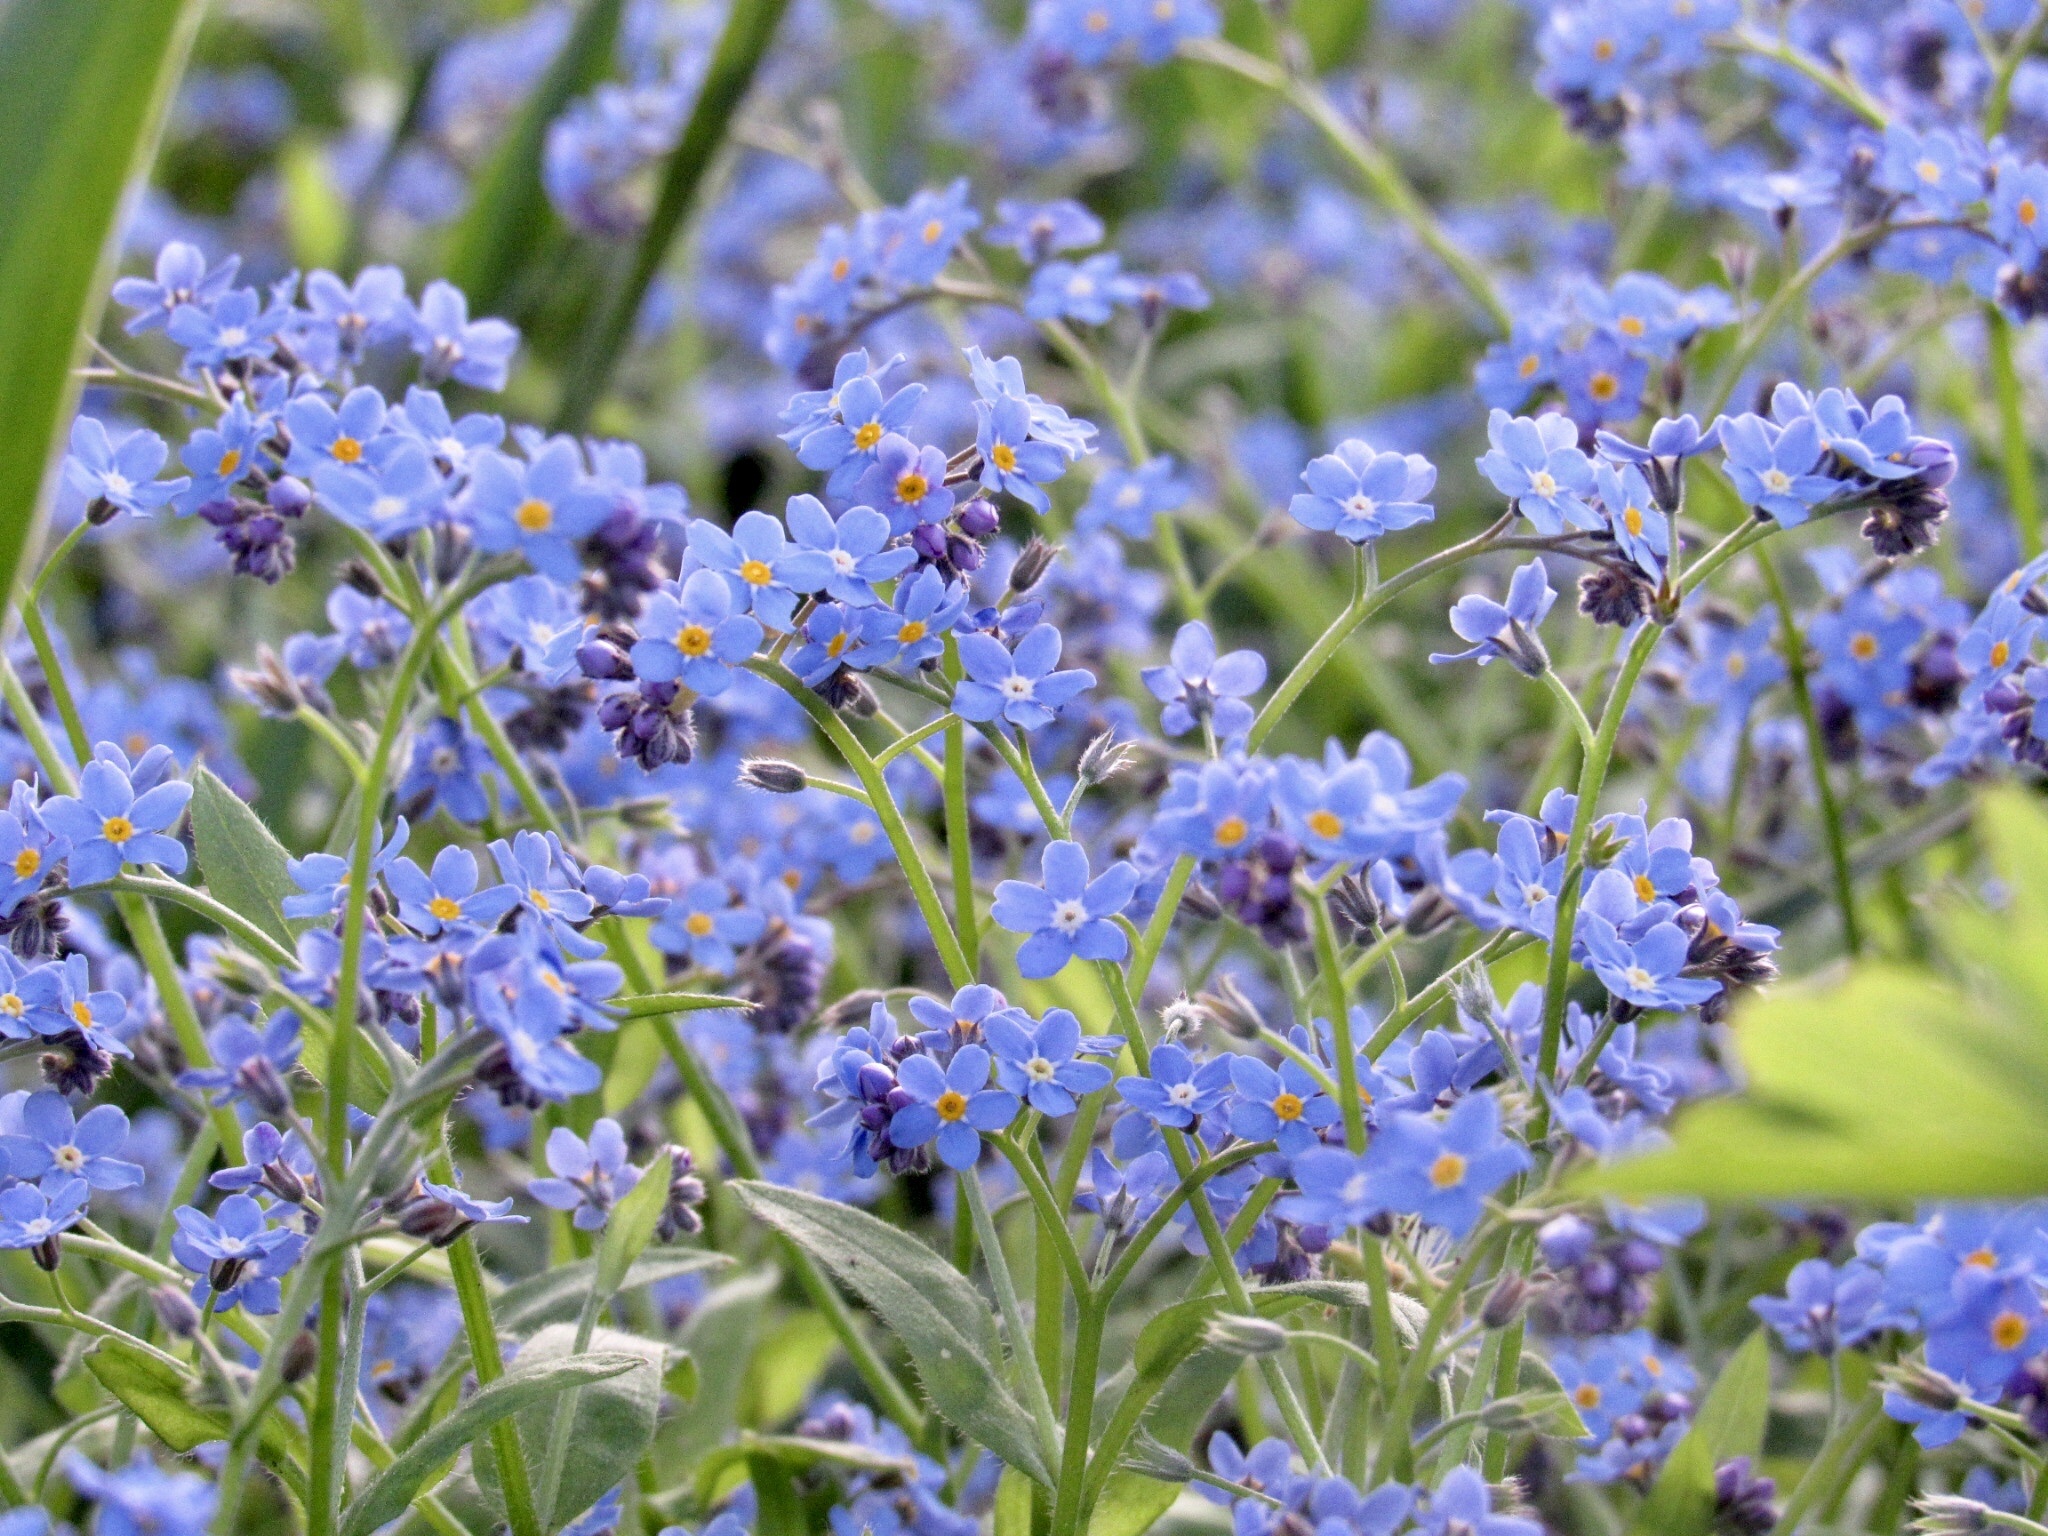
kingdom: Plantae
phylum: Tracheophyta
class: Magnoliopsida
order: Boraginales
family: Boraginaceae
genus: Myosotis
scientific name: Myosotis sylvatica
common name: Wood forget-me-not
